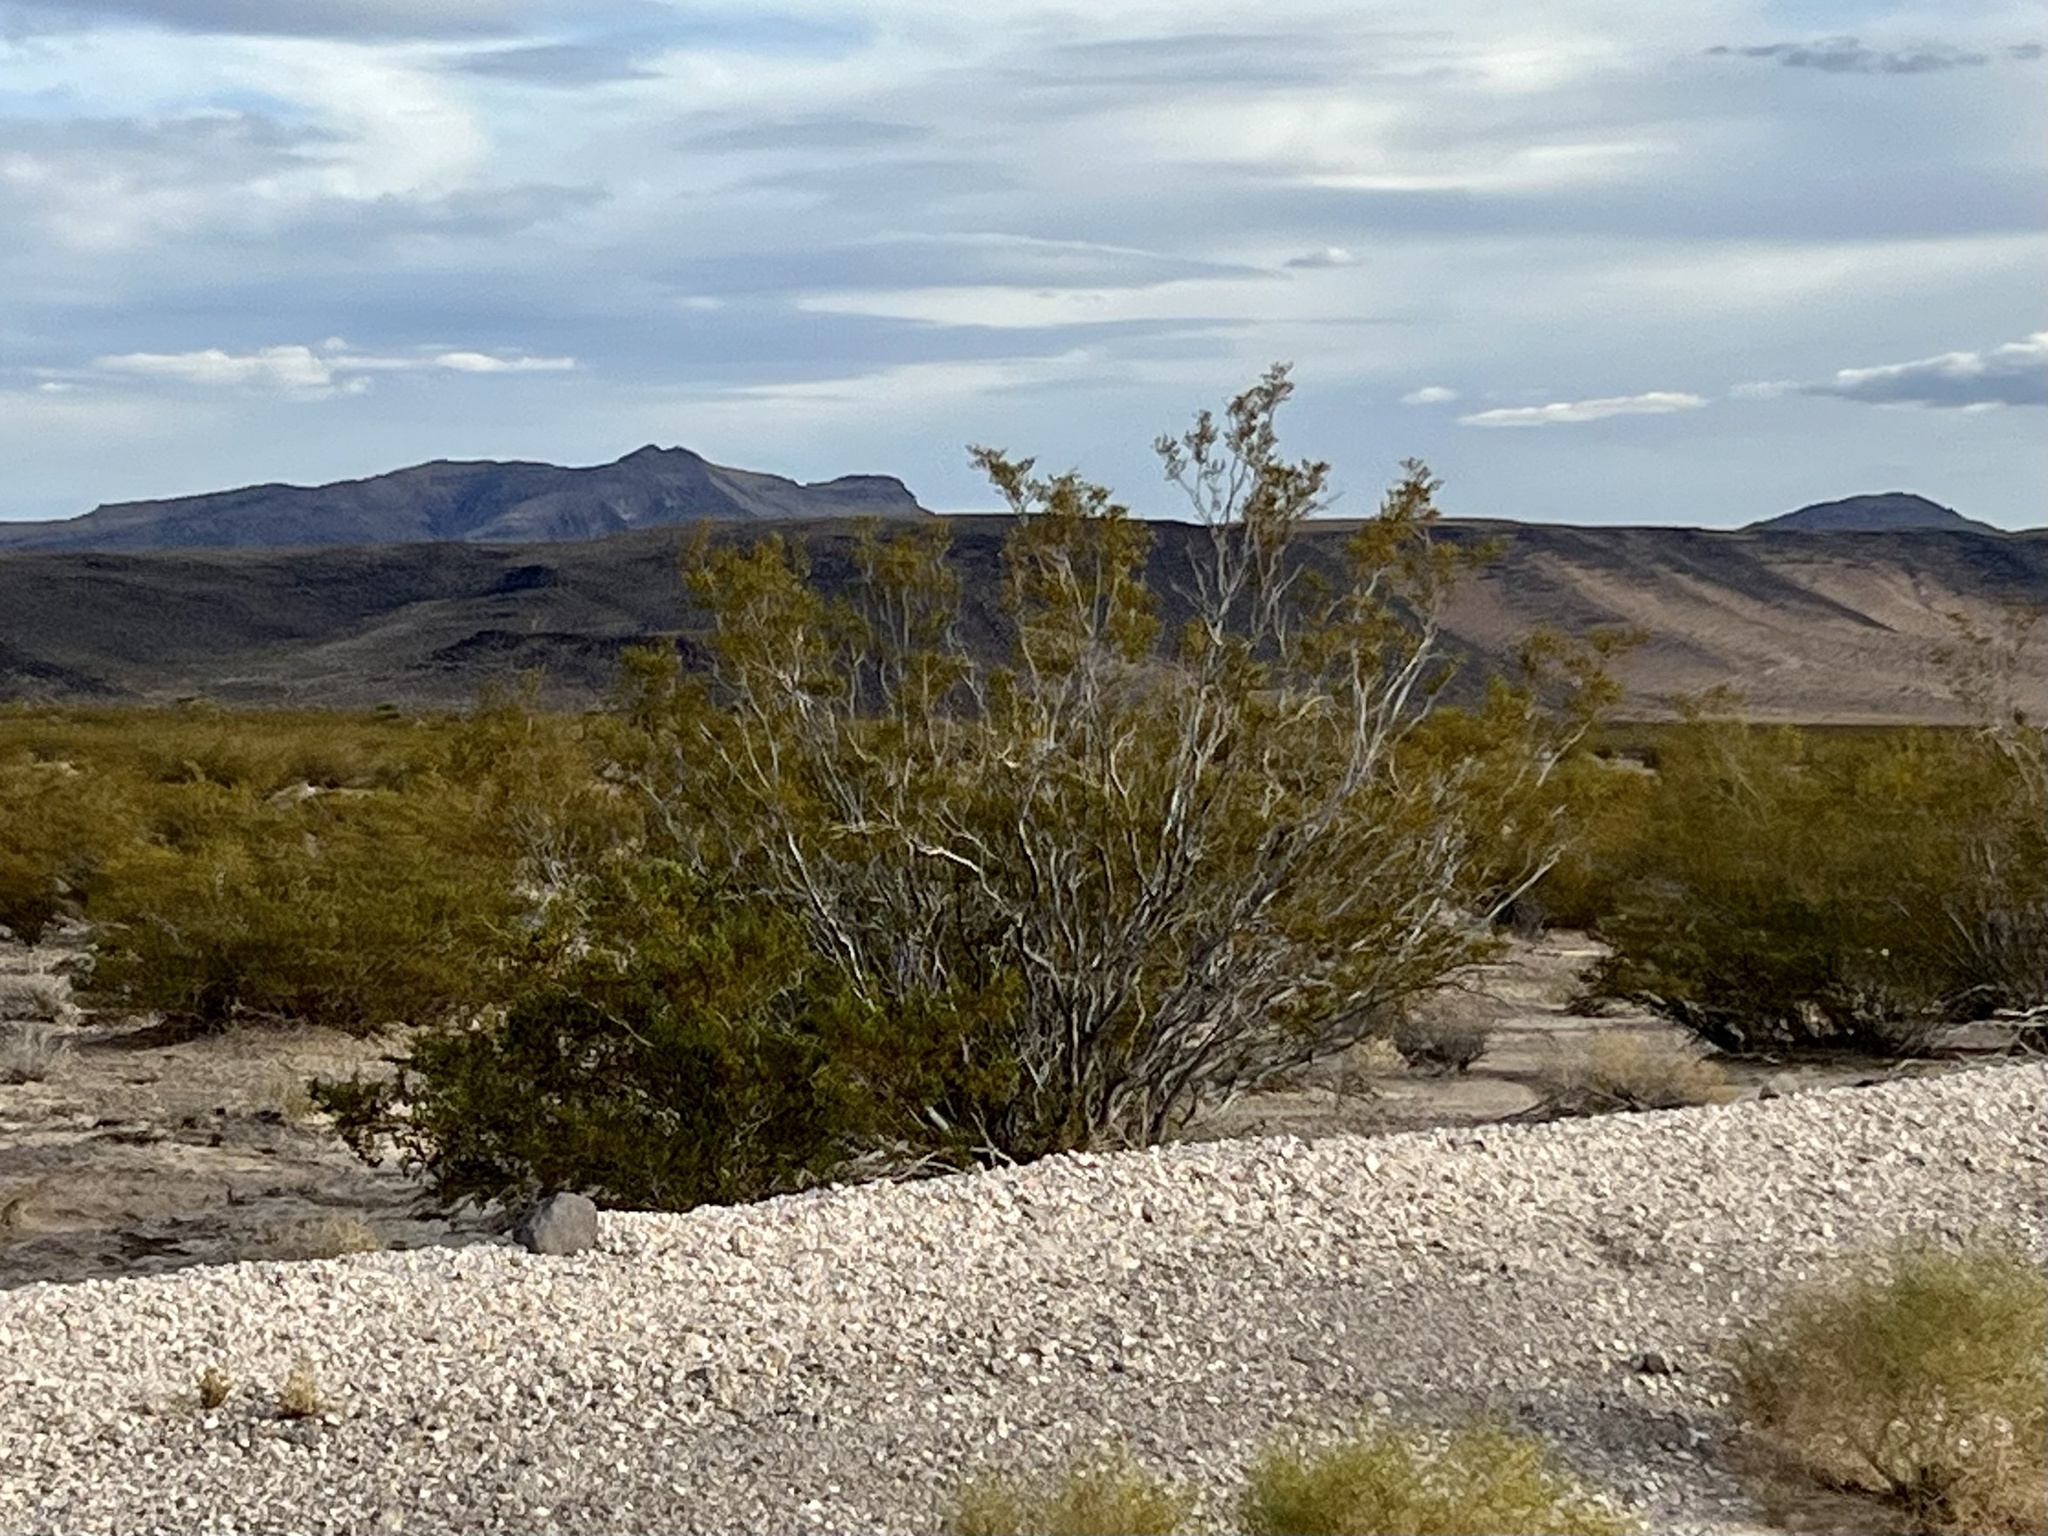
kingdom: Plantae
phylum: Tracheophyta
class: Magnoliopsida
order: Zygophyllales
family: Zygophyllaceae
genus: Larrea
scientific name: Larrea tridentata
